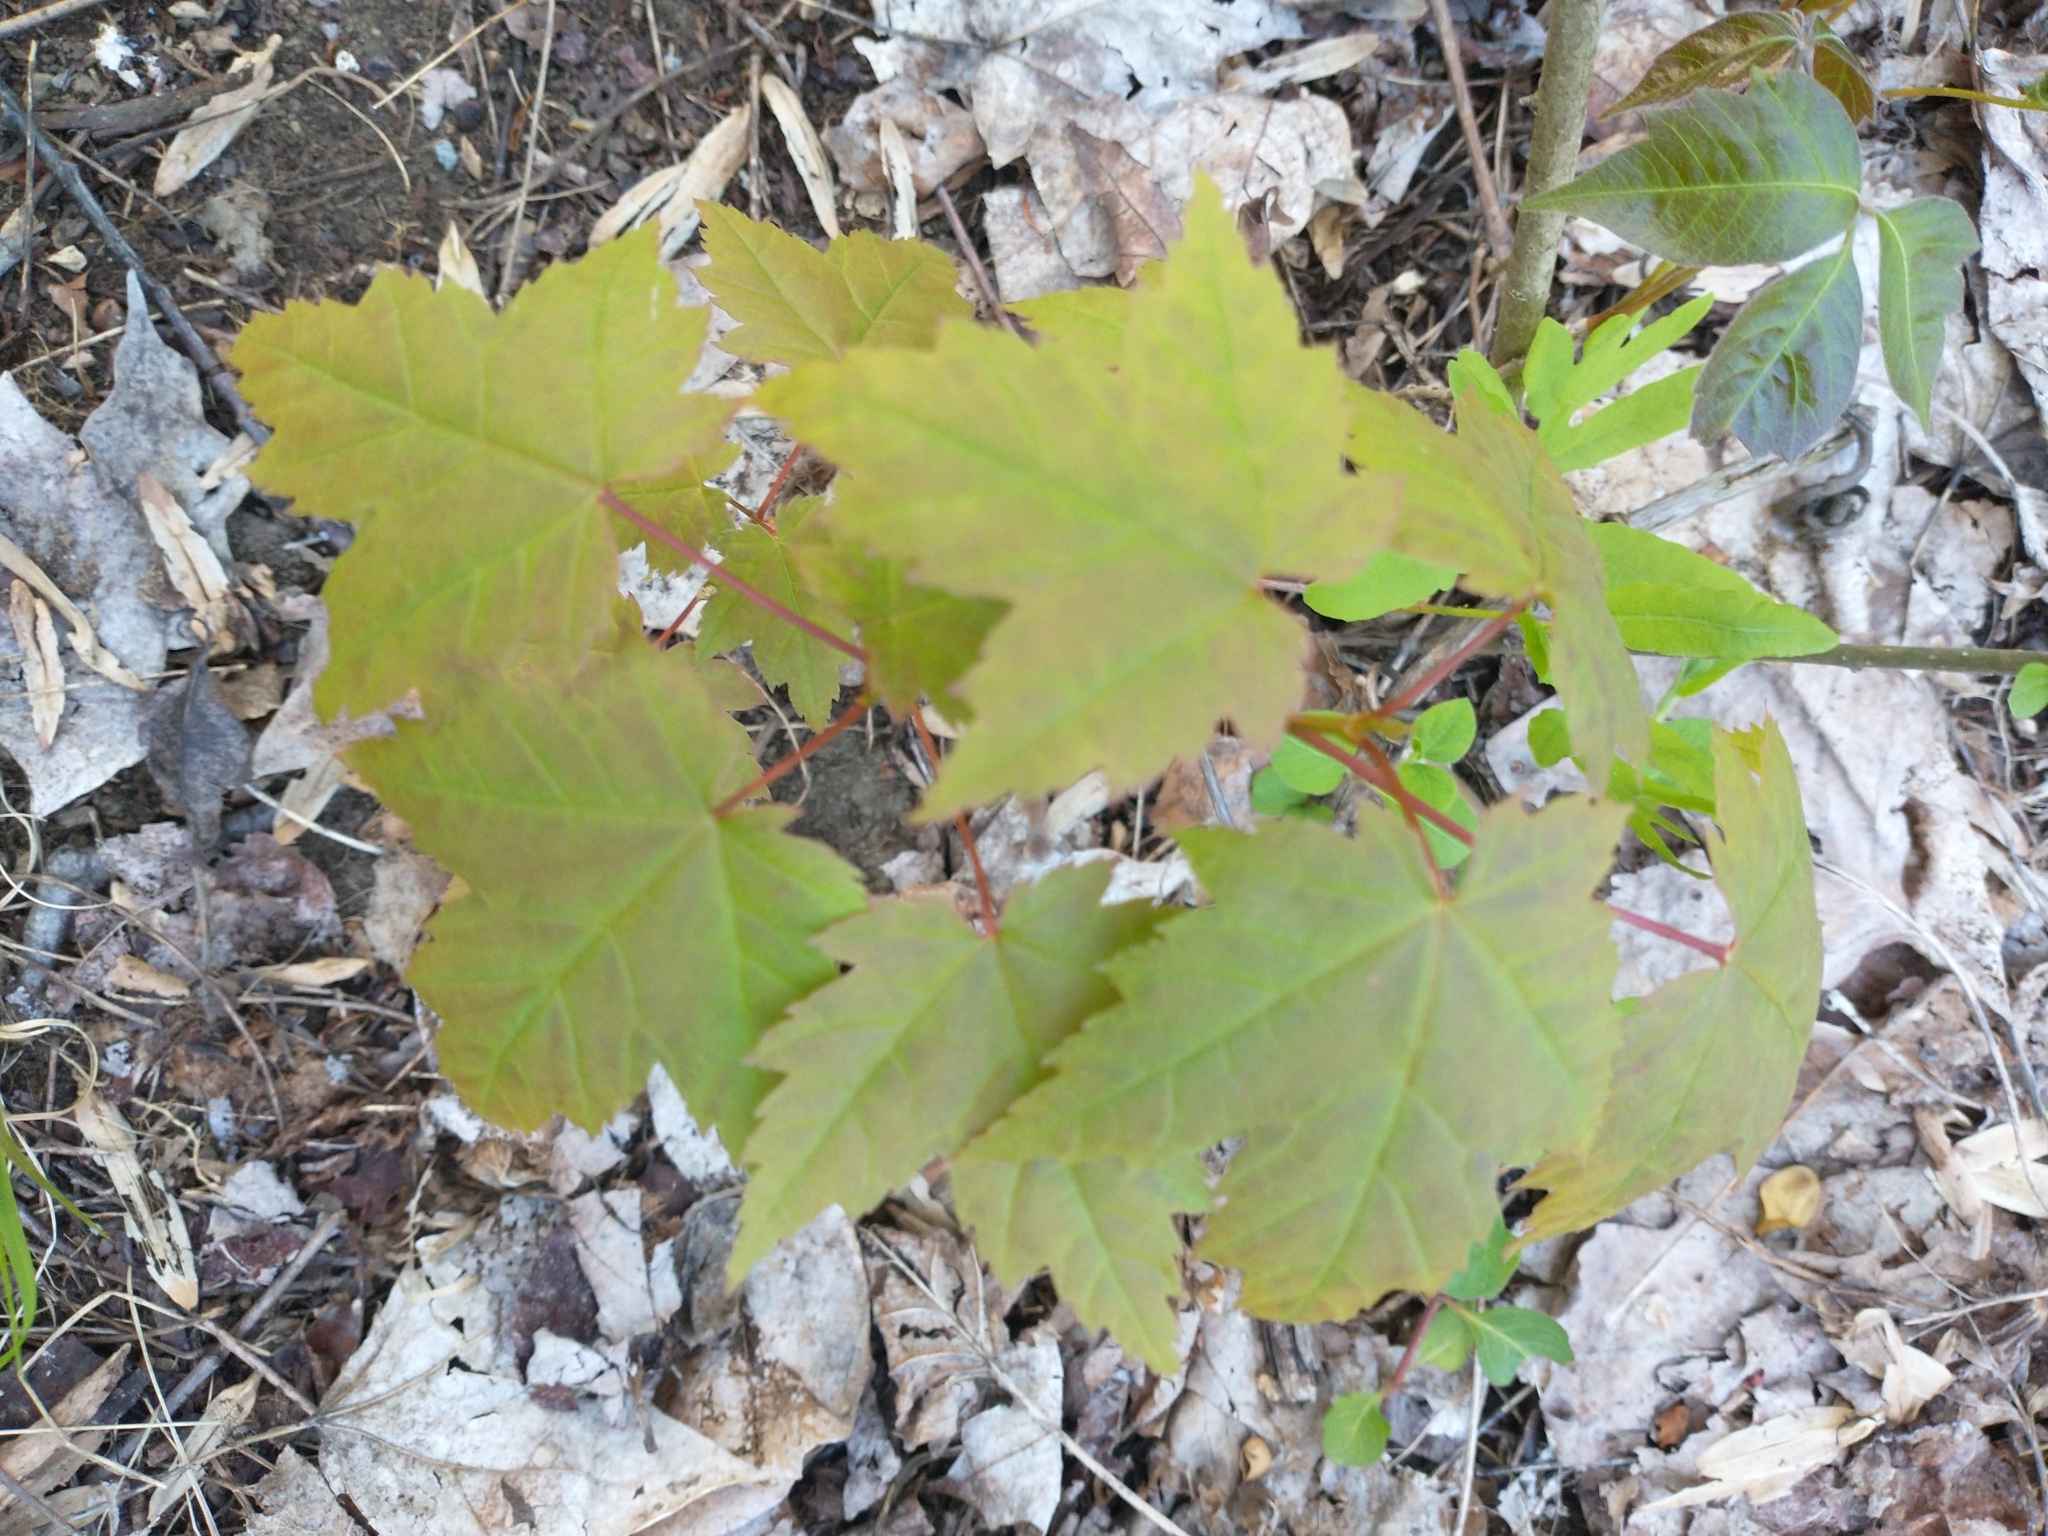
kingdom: Plantae
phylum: Tracheophyta
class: Magnoliopsida
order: Sapindales
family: Sapindaceae
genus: Acer
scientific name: Acer rubrum
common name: Red maple
